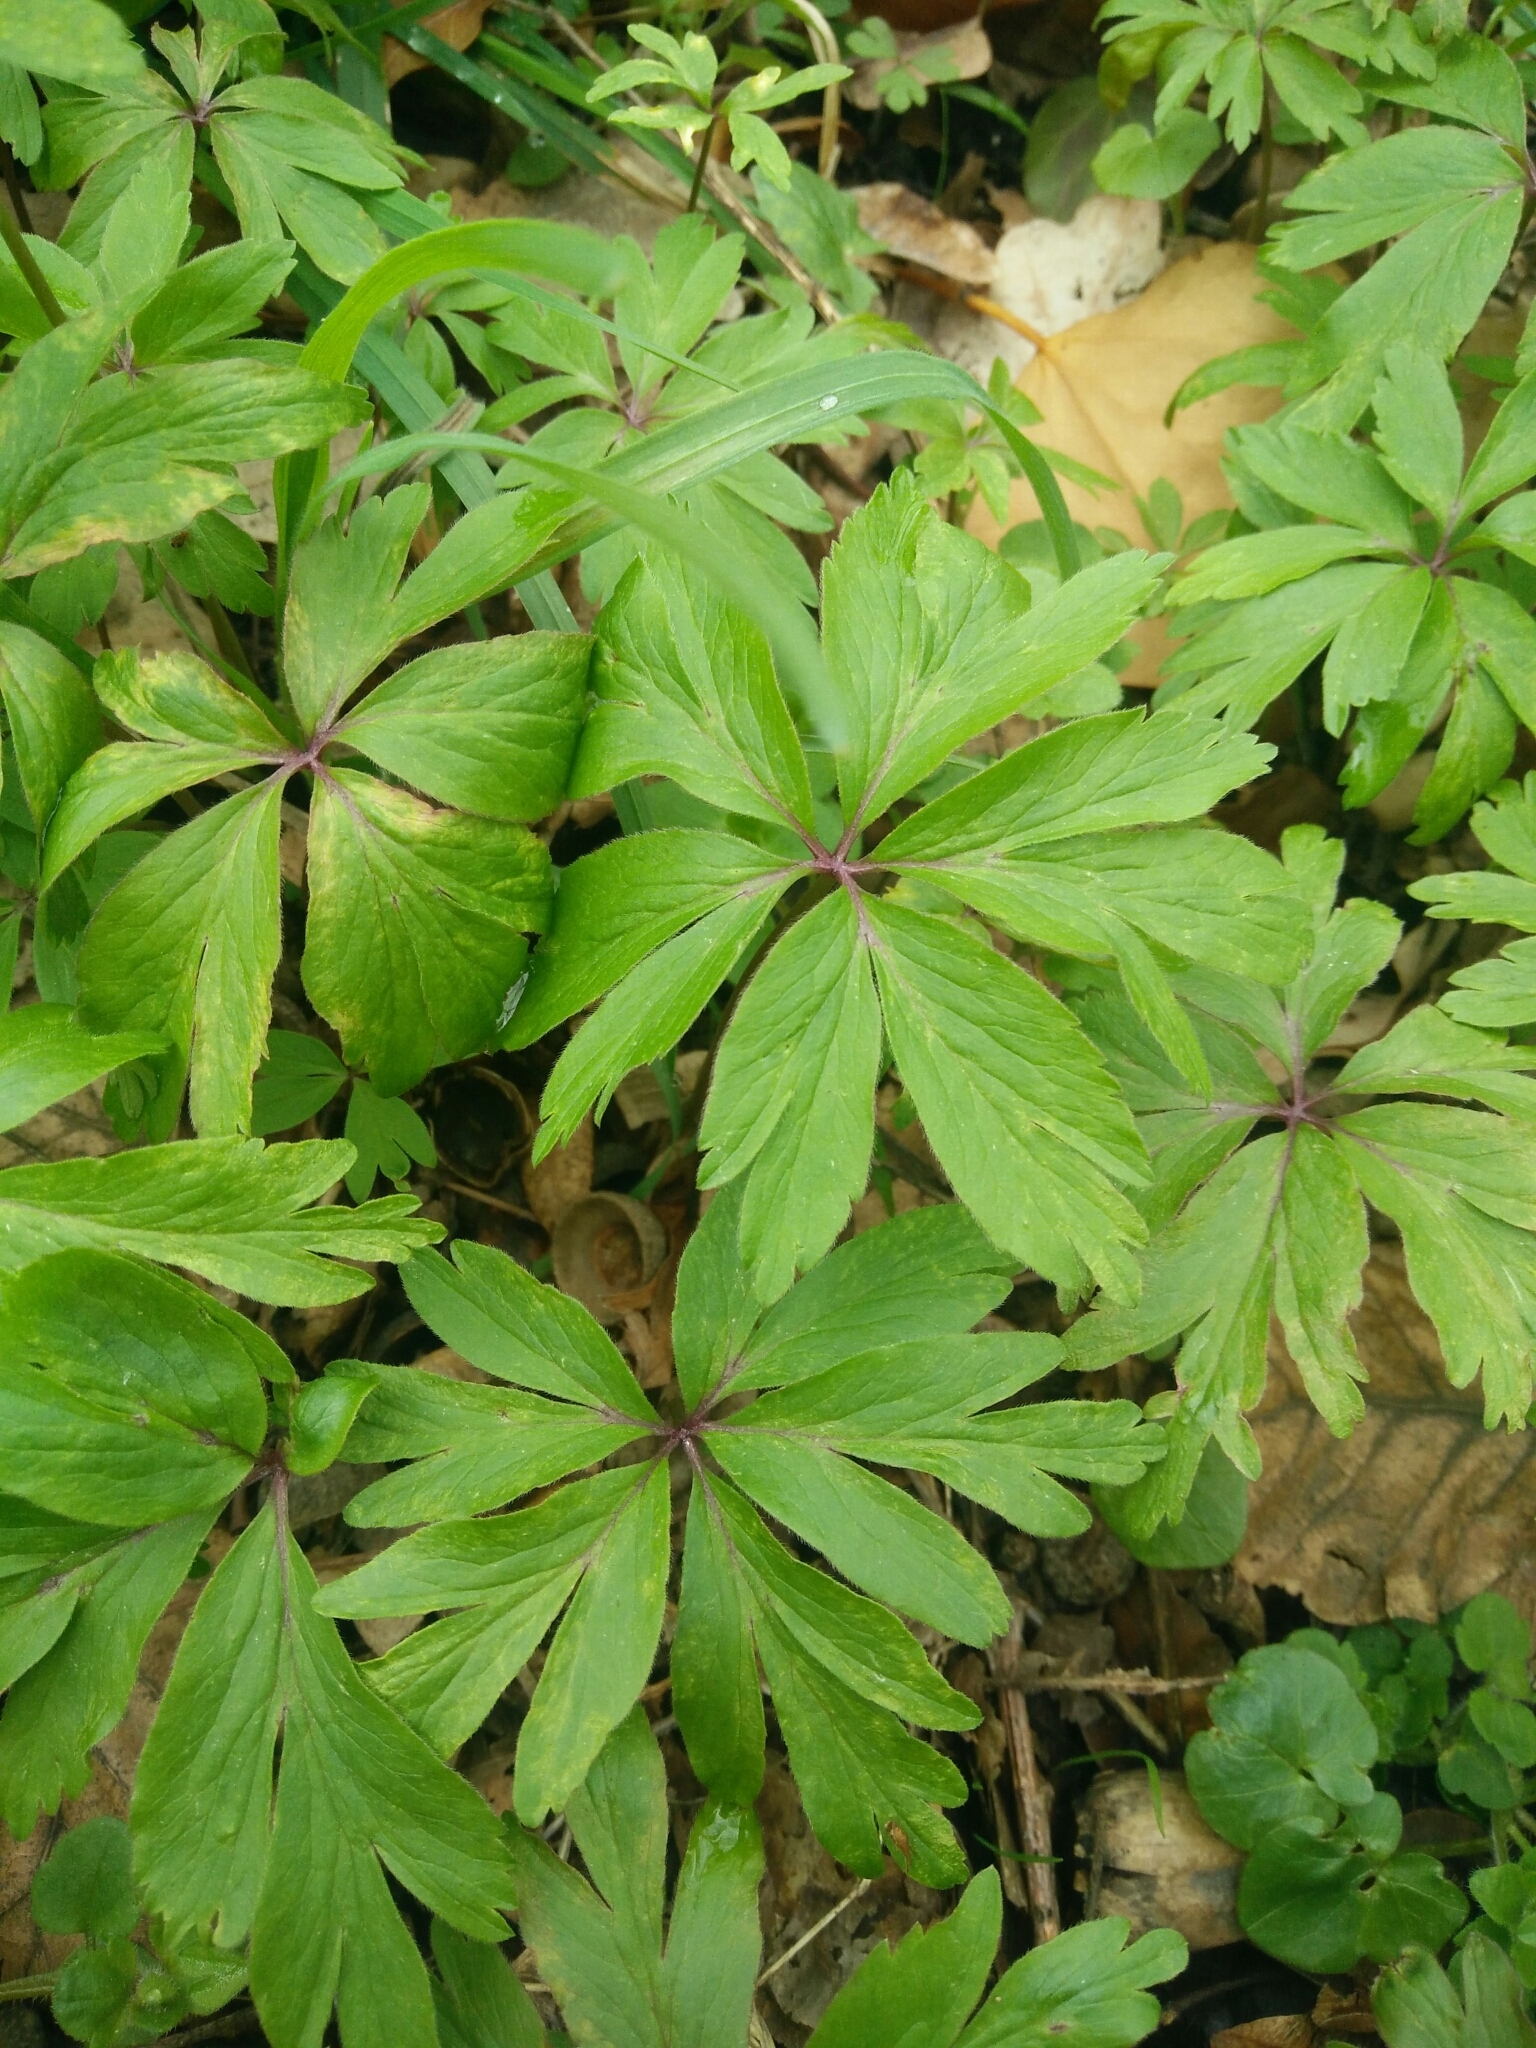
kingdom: Plantae
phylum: Tracheophyta
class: Magnoliopsida
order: Ranunculales
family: Ranunculaceae
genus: Anemone
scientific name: Anemone nemorosa
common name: Wood anemone
